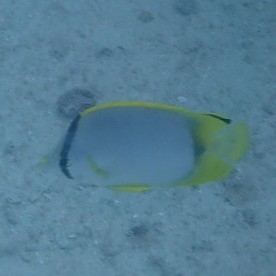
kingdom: Animalia
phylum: Chordata
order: Perciformes
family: Chaetodontidae
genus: Chaetodon
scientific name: Chaetodon ocellatus
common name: Spotfin butterflyfish
